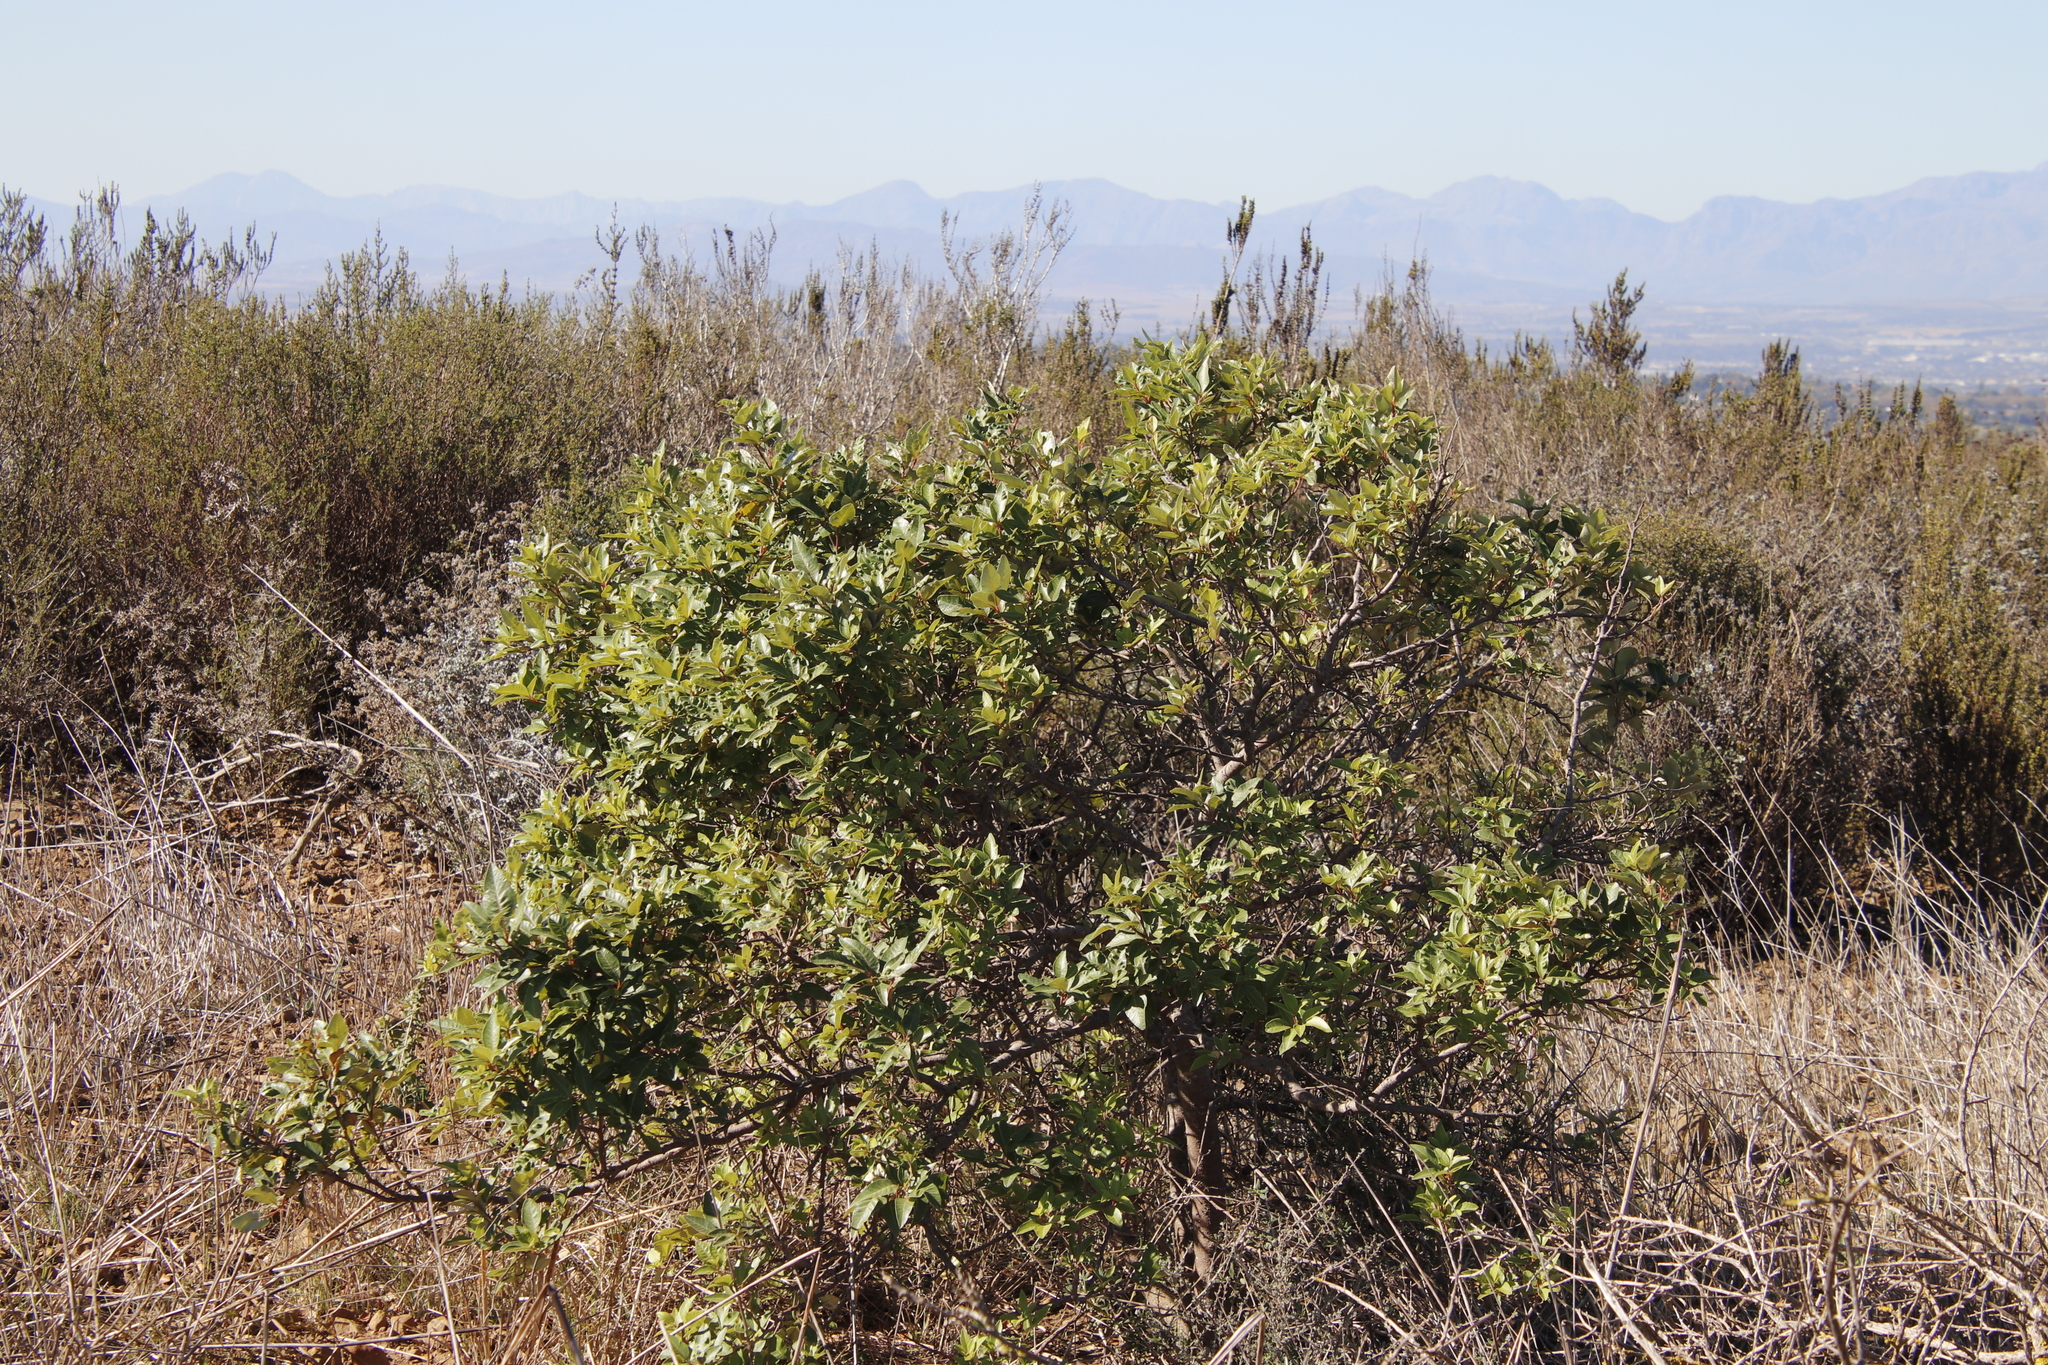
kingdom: Plantae
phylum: Tracheophyta
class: Magnoliopsida
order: Sapindales
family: Anacardiaceae
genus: Searsia
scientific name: Searsia tomentosa
